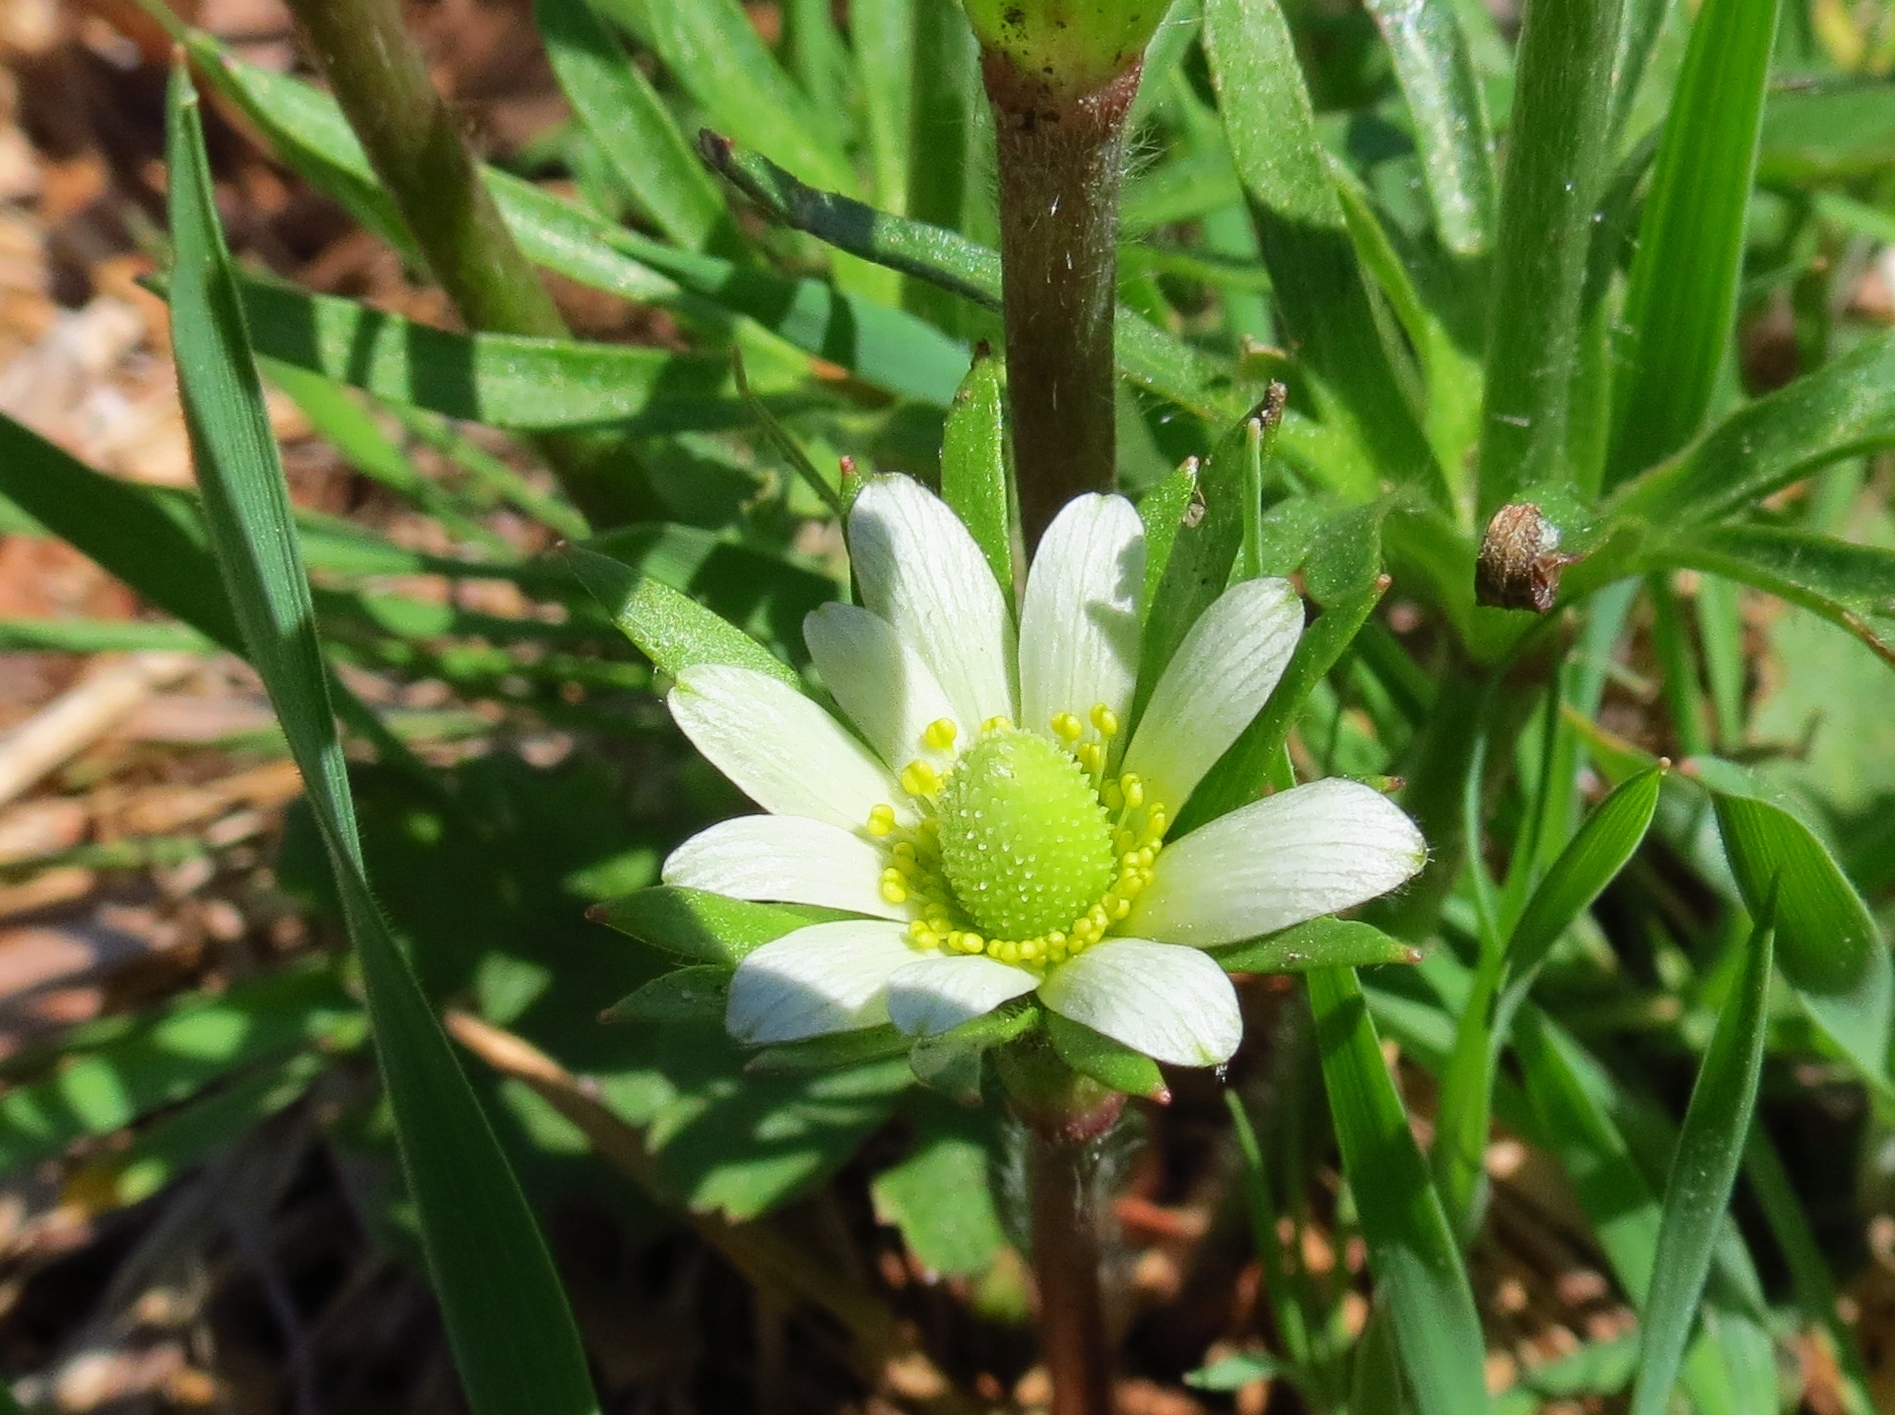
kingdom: Plantae
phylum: Tracheophyta
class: Magnoliopsida
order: Ranunculales
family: Ranunculaceae
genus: Anemone
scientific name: Anemone berlandieri
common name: Ten-petal anemone
